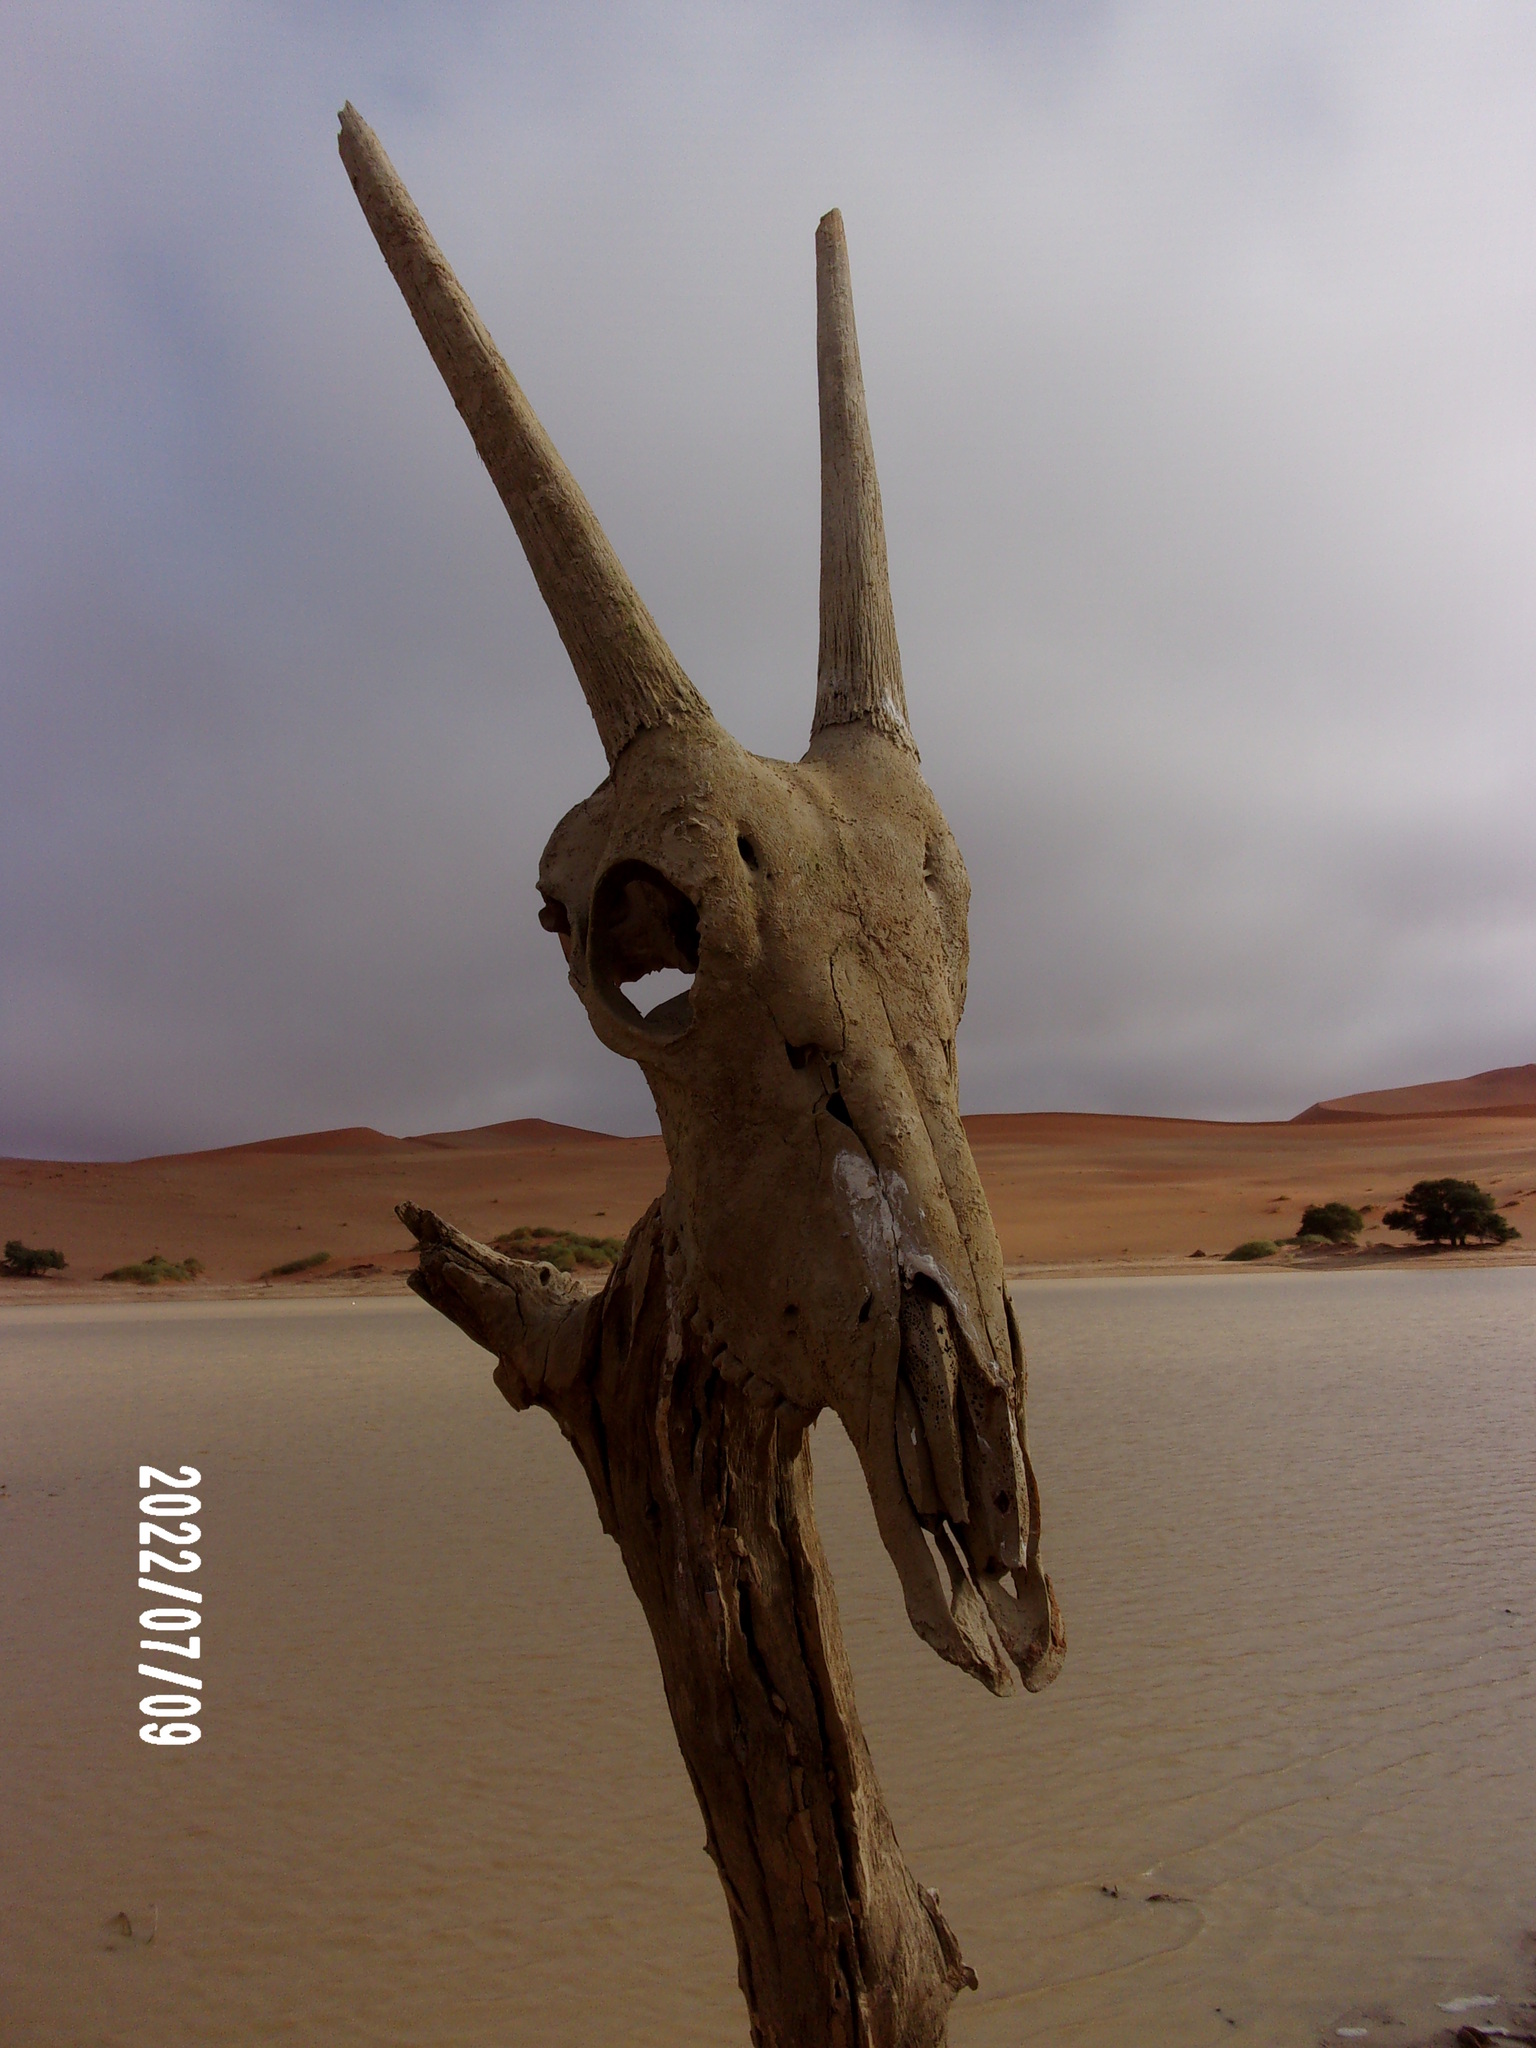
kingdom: Animalia
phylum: Chordata
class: Mammalia
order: Artiodactyla
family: Bovidae
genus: Oryx
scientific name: Oryx gazella
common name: Gemsbok
